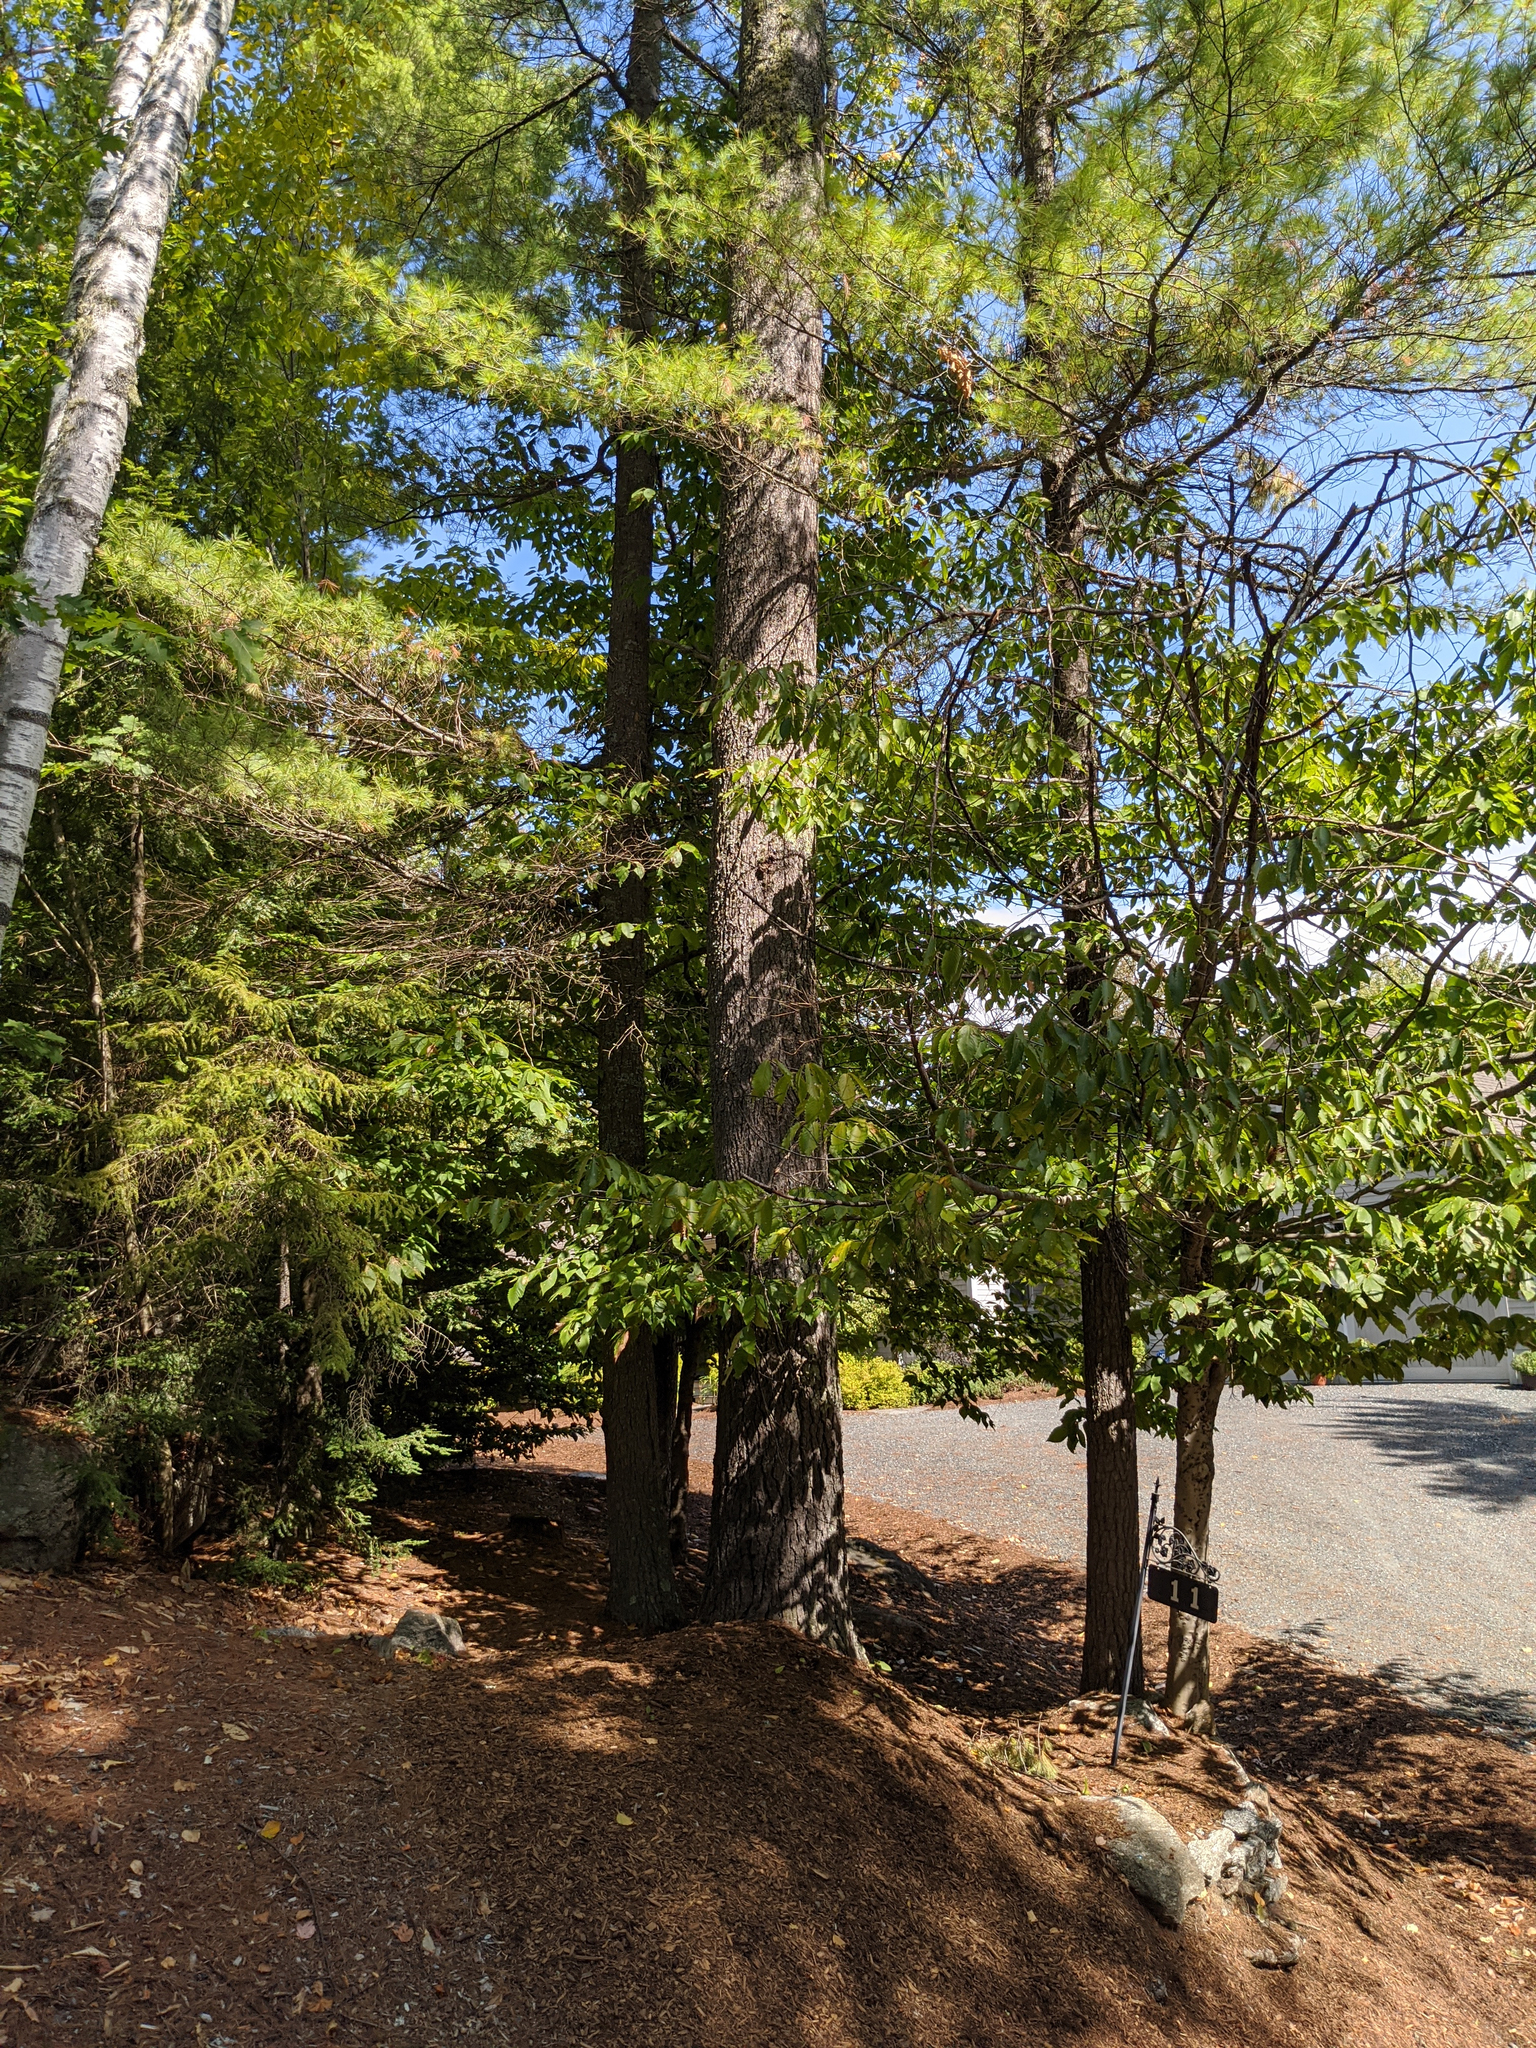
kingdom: Plantae
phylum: Tracheophyta
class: Pinopsida
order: Pinales
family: Pinaceae
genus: Pinus
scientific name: Pinus strobus
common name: Weymouth pine
